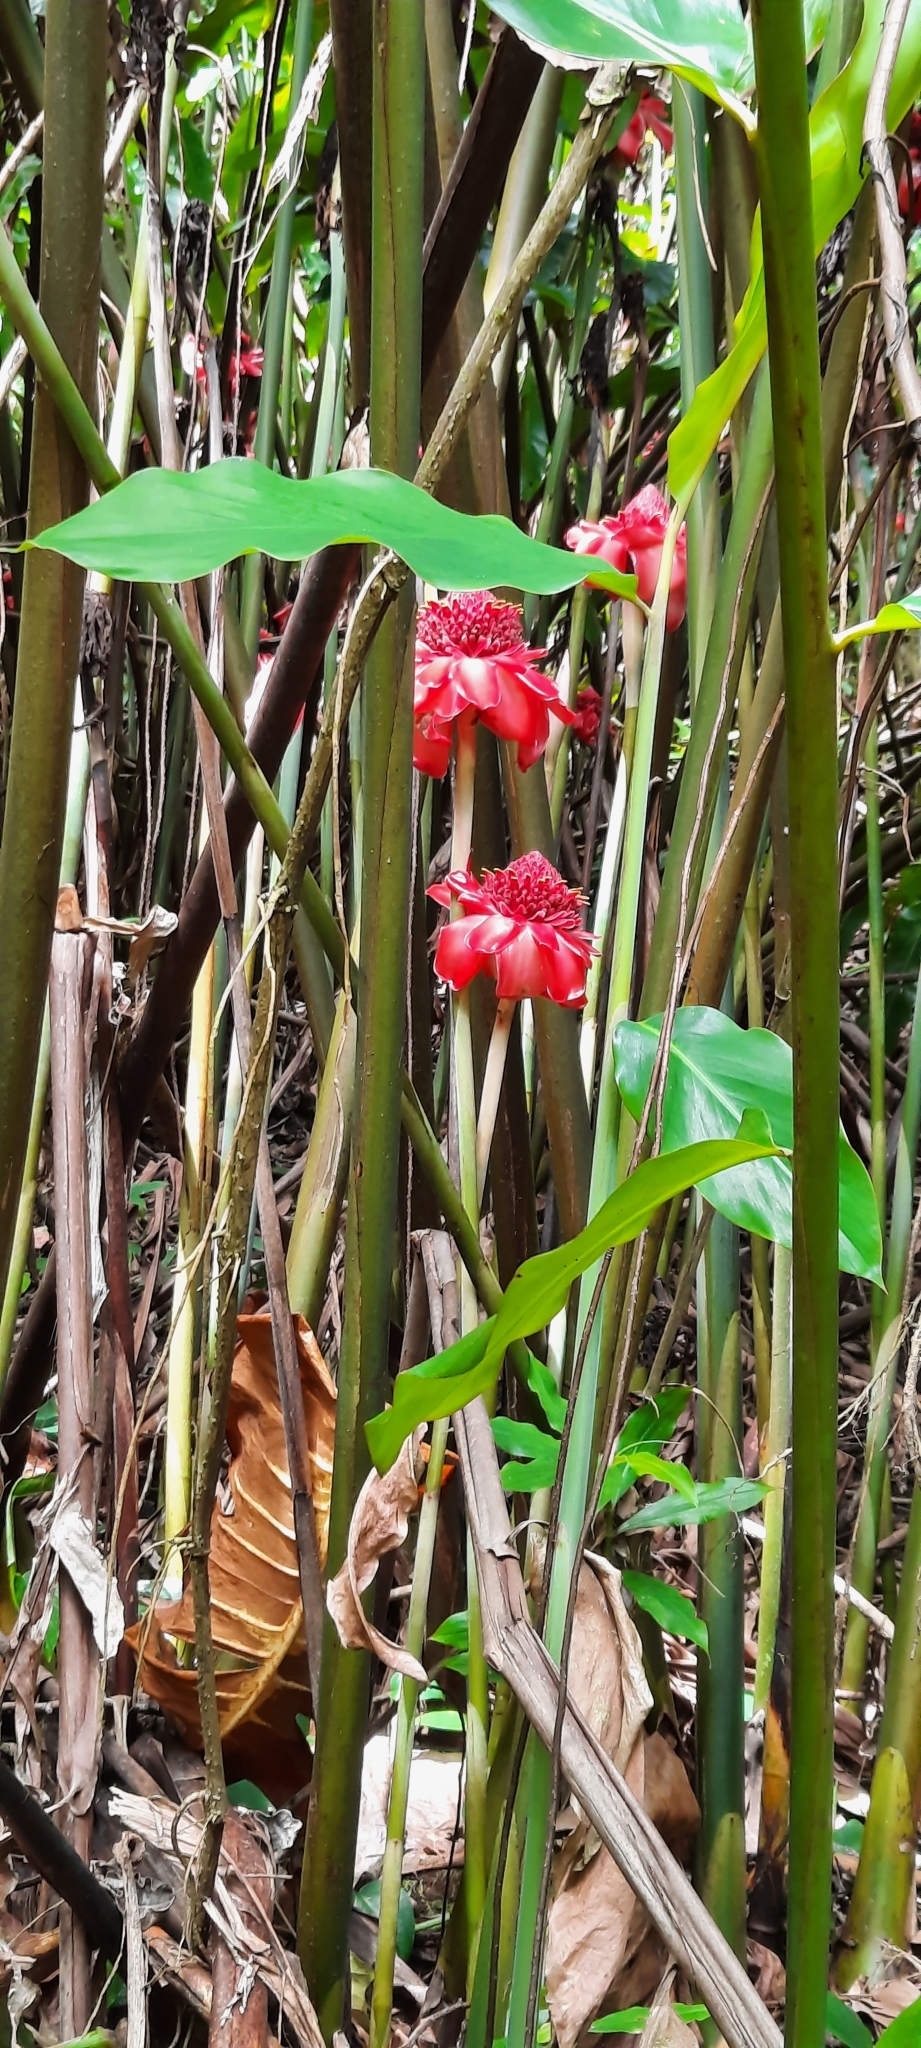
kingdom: Plantae
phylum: Tracheophyta
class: Liliopsida
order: Zingiberales
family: Zingiberaceae
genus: Etlingera
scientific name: Etlingera elatior
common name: Philippine waxflower
